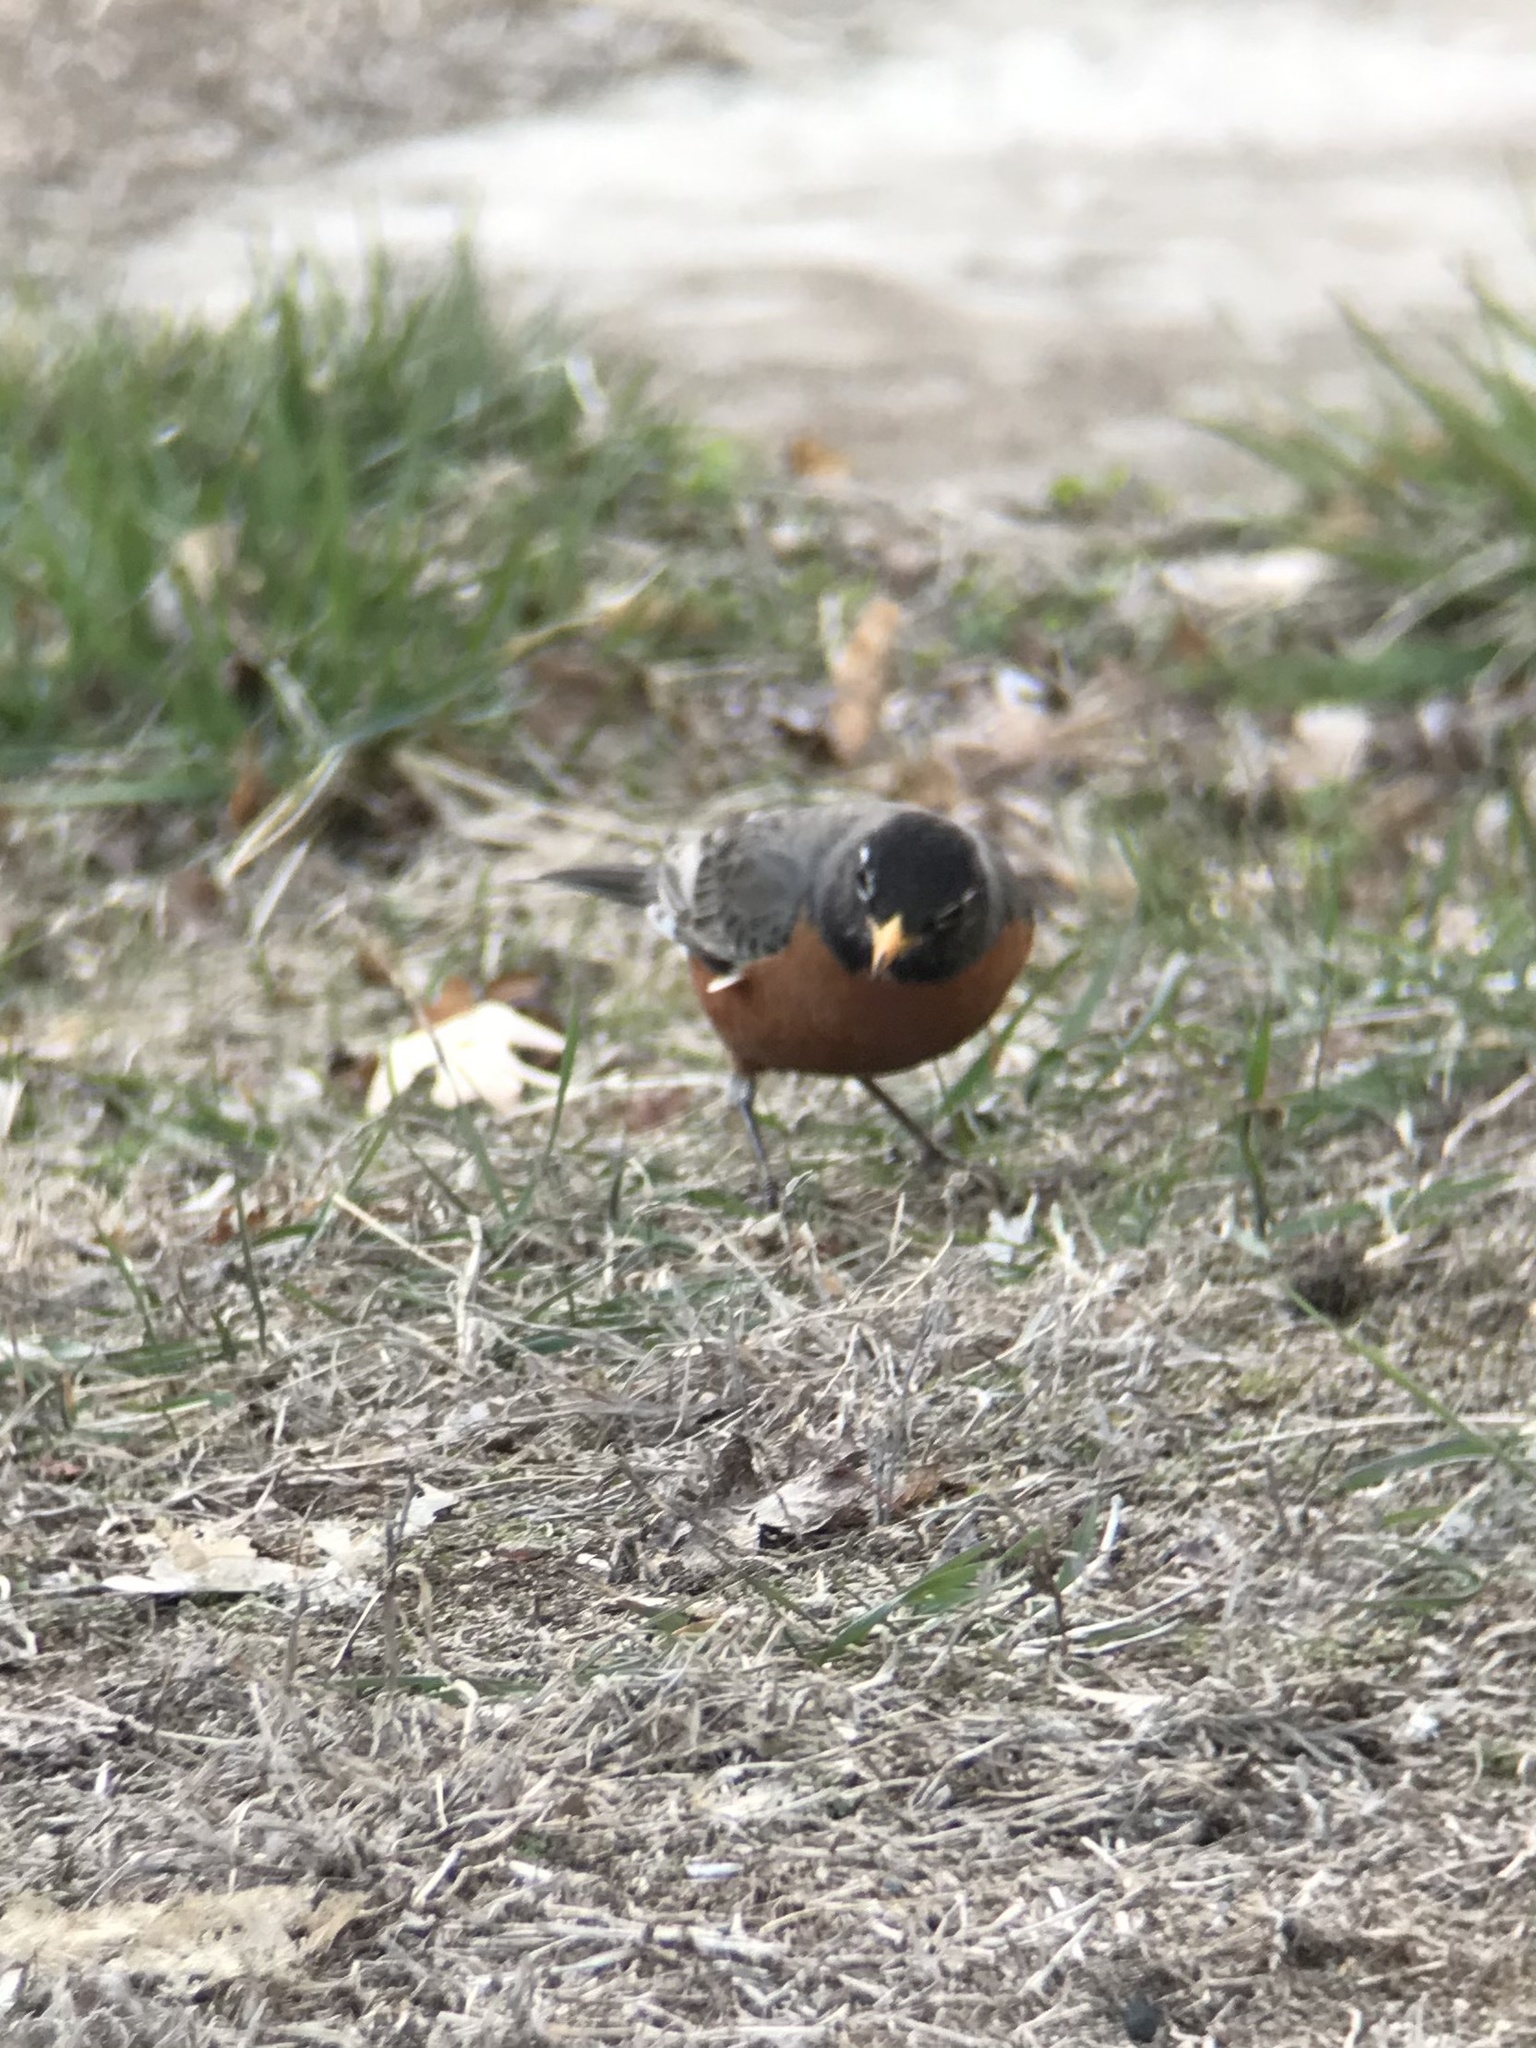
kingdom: Animalia
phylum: Chordata
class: Aves
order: Passeriformes
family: Turdidae
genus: Turdus
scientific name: Turdus migratorius
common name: American robin
